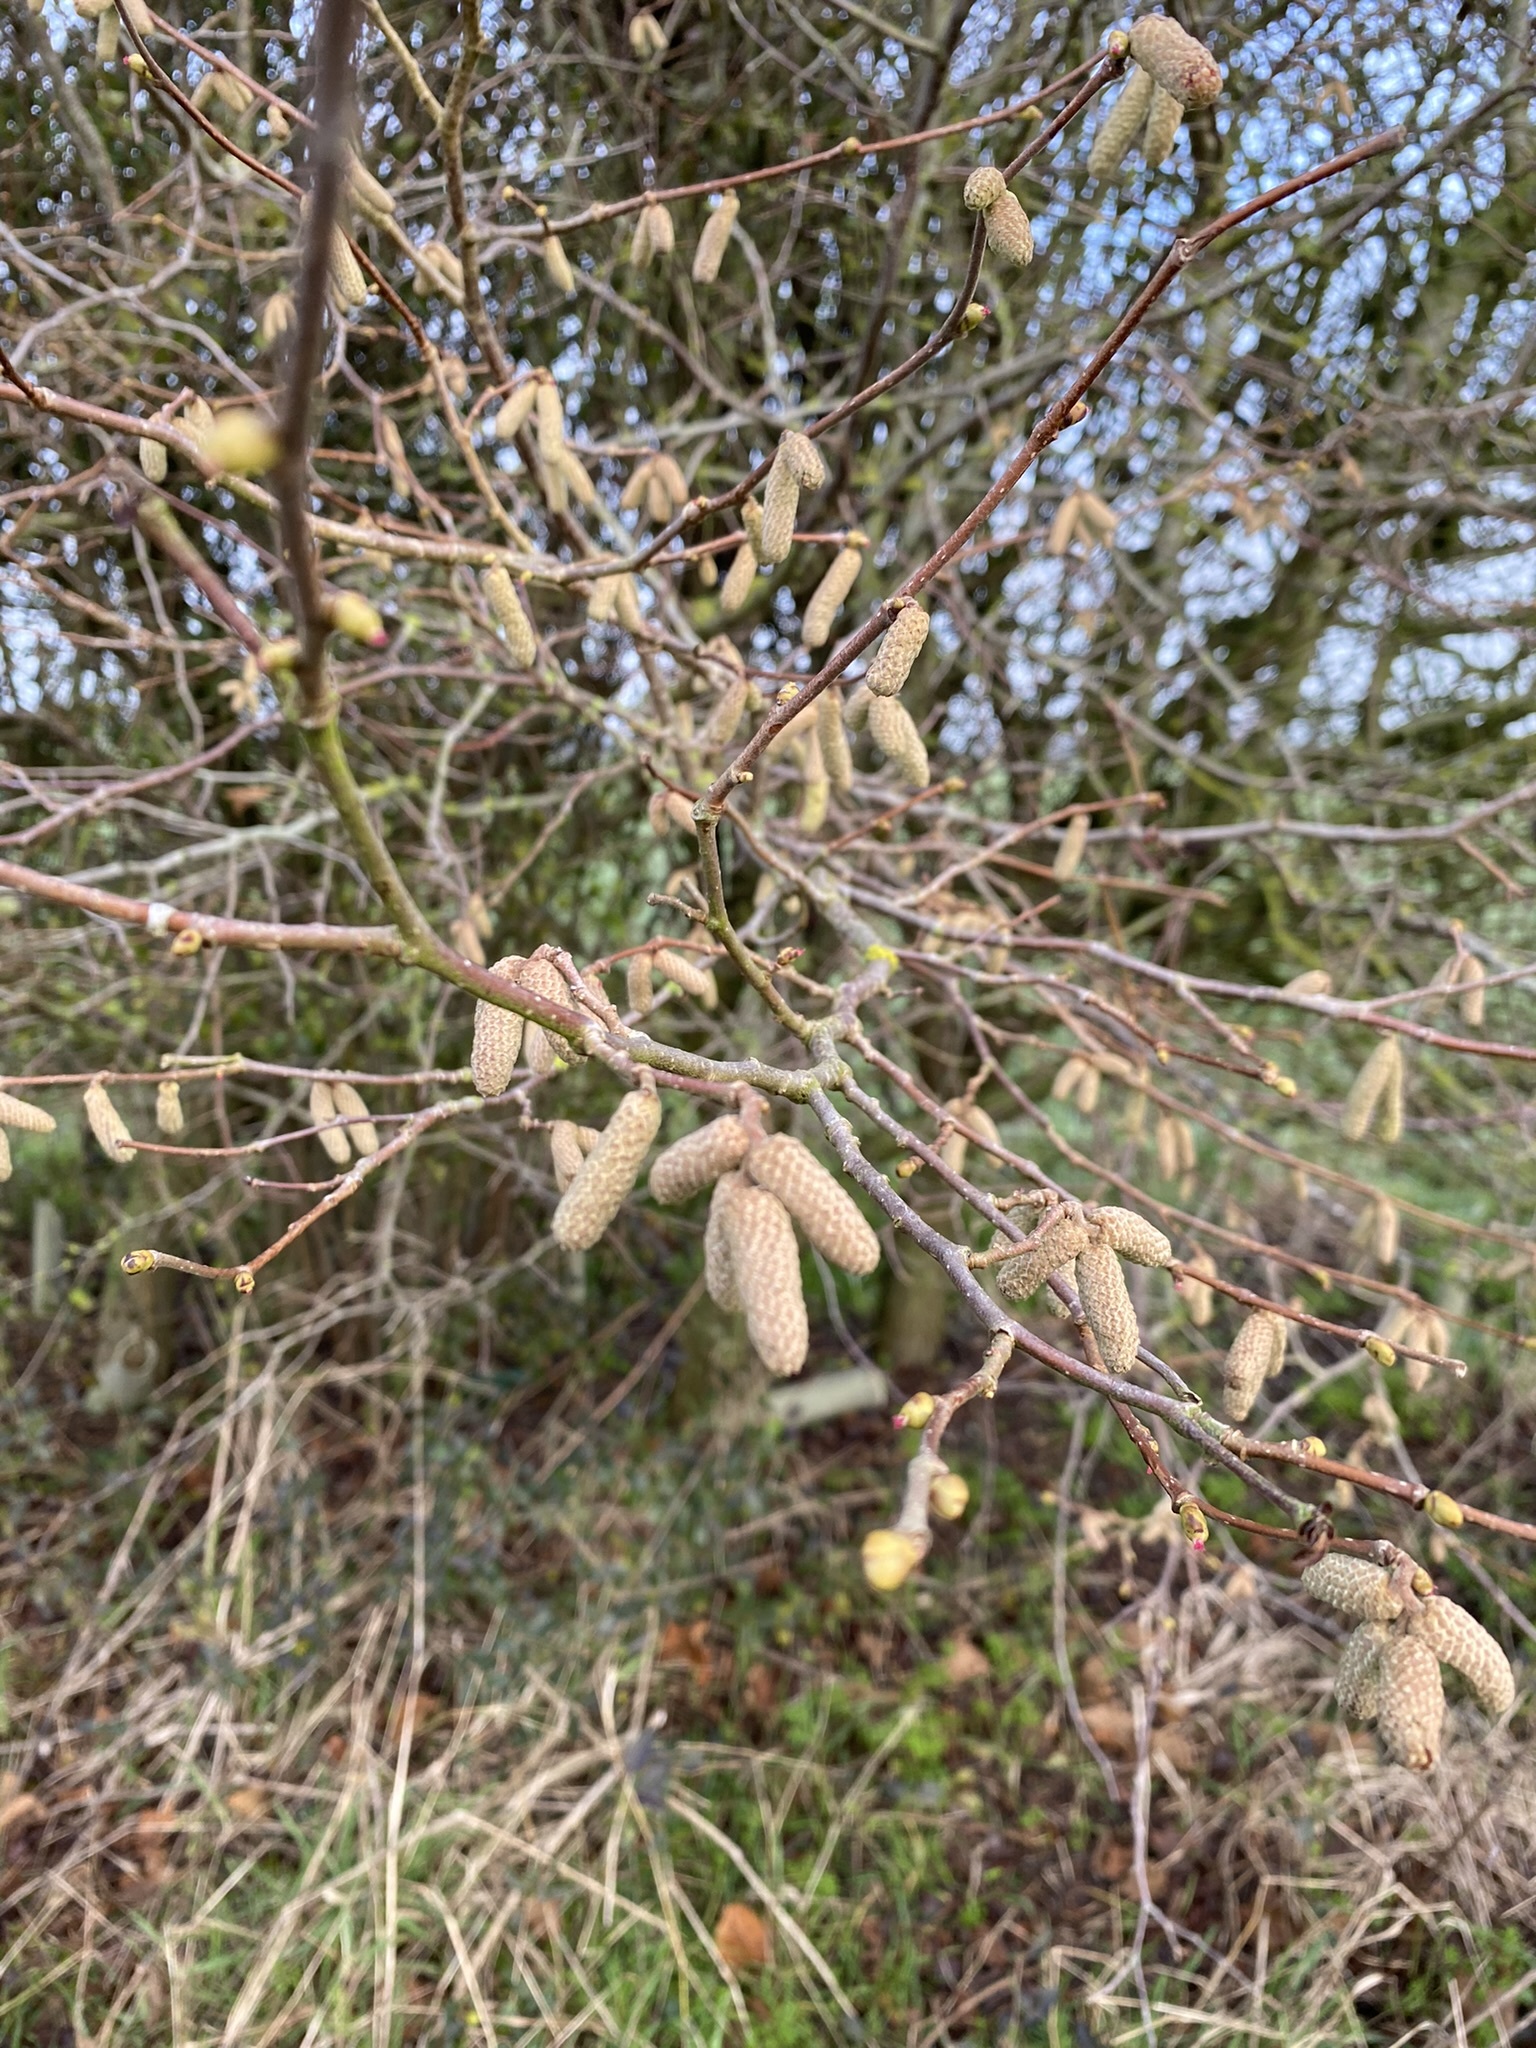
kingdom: Plantae
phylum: Tracheophyta
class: Magnoliopsida
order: Fagales
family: Betulaceae
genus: Corylus
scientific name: Corylus avellana
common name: European hazel
